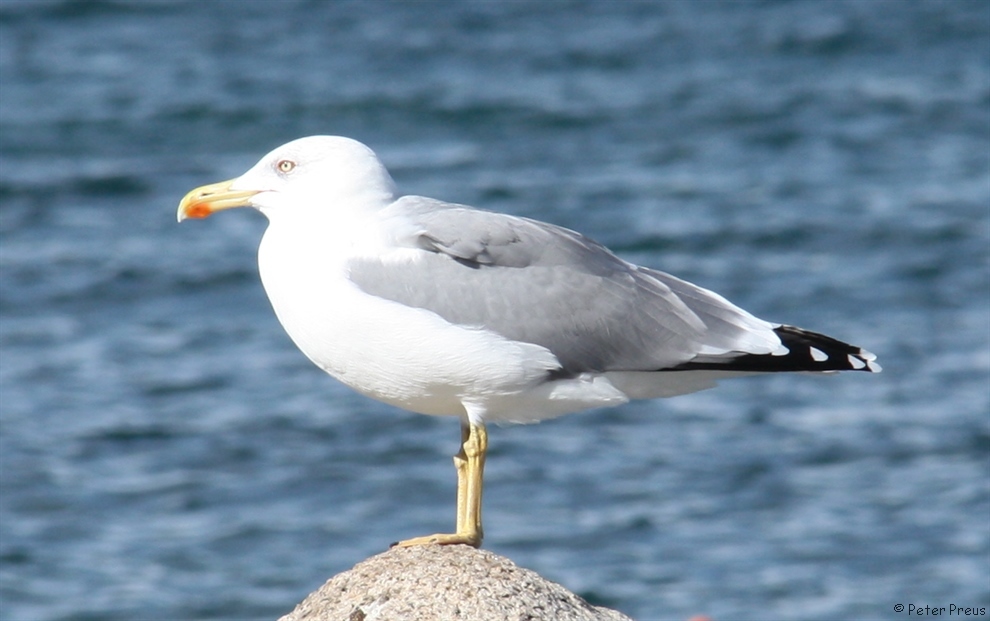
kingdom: Animalia
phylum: Chordata
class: Aves
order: Charadriiformes
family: Laridae
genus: Larus
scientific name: Larus michahellis
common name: Yellow-legged gull
